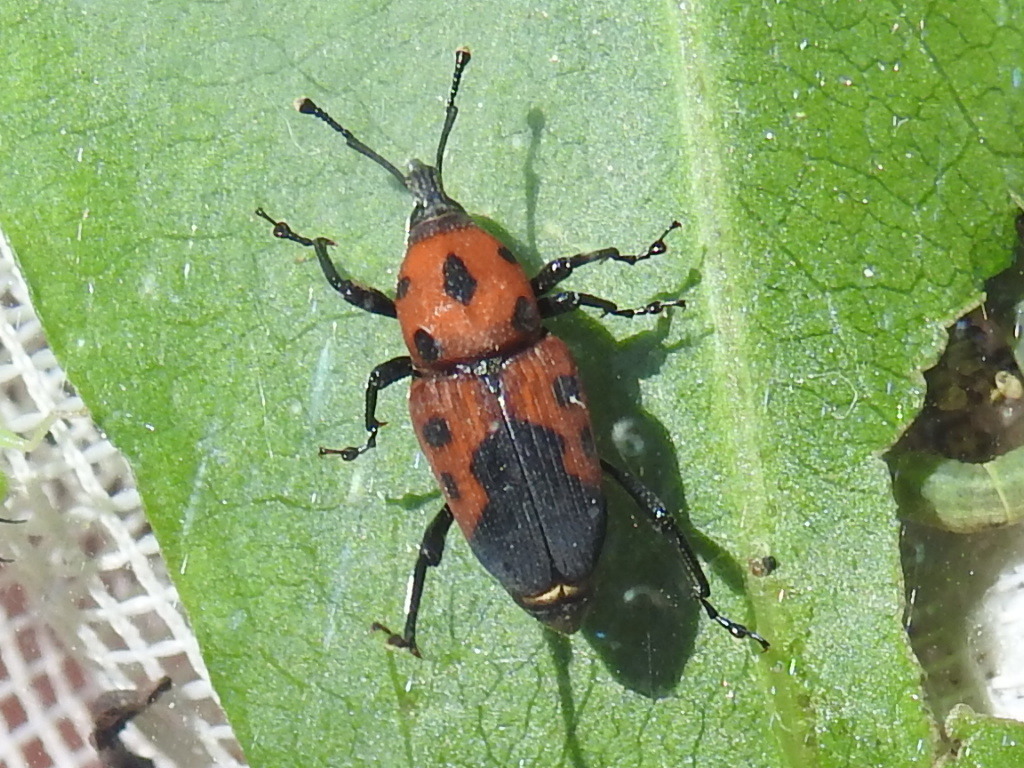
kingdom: Animalia
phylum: Arthropoda
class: Insecta
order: Coleoptera
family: Dryophthoridae
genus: Rhodobaenus
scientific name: Rhodobaenus quinquepunctatus
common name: Cocklebur weevil
